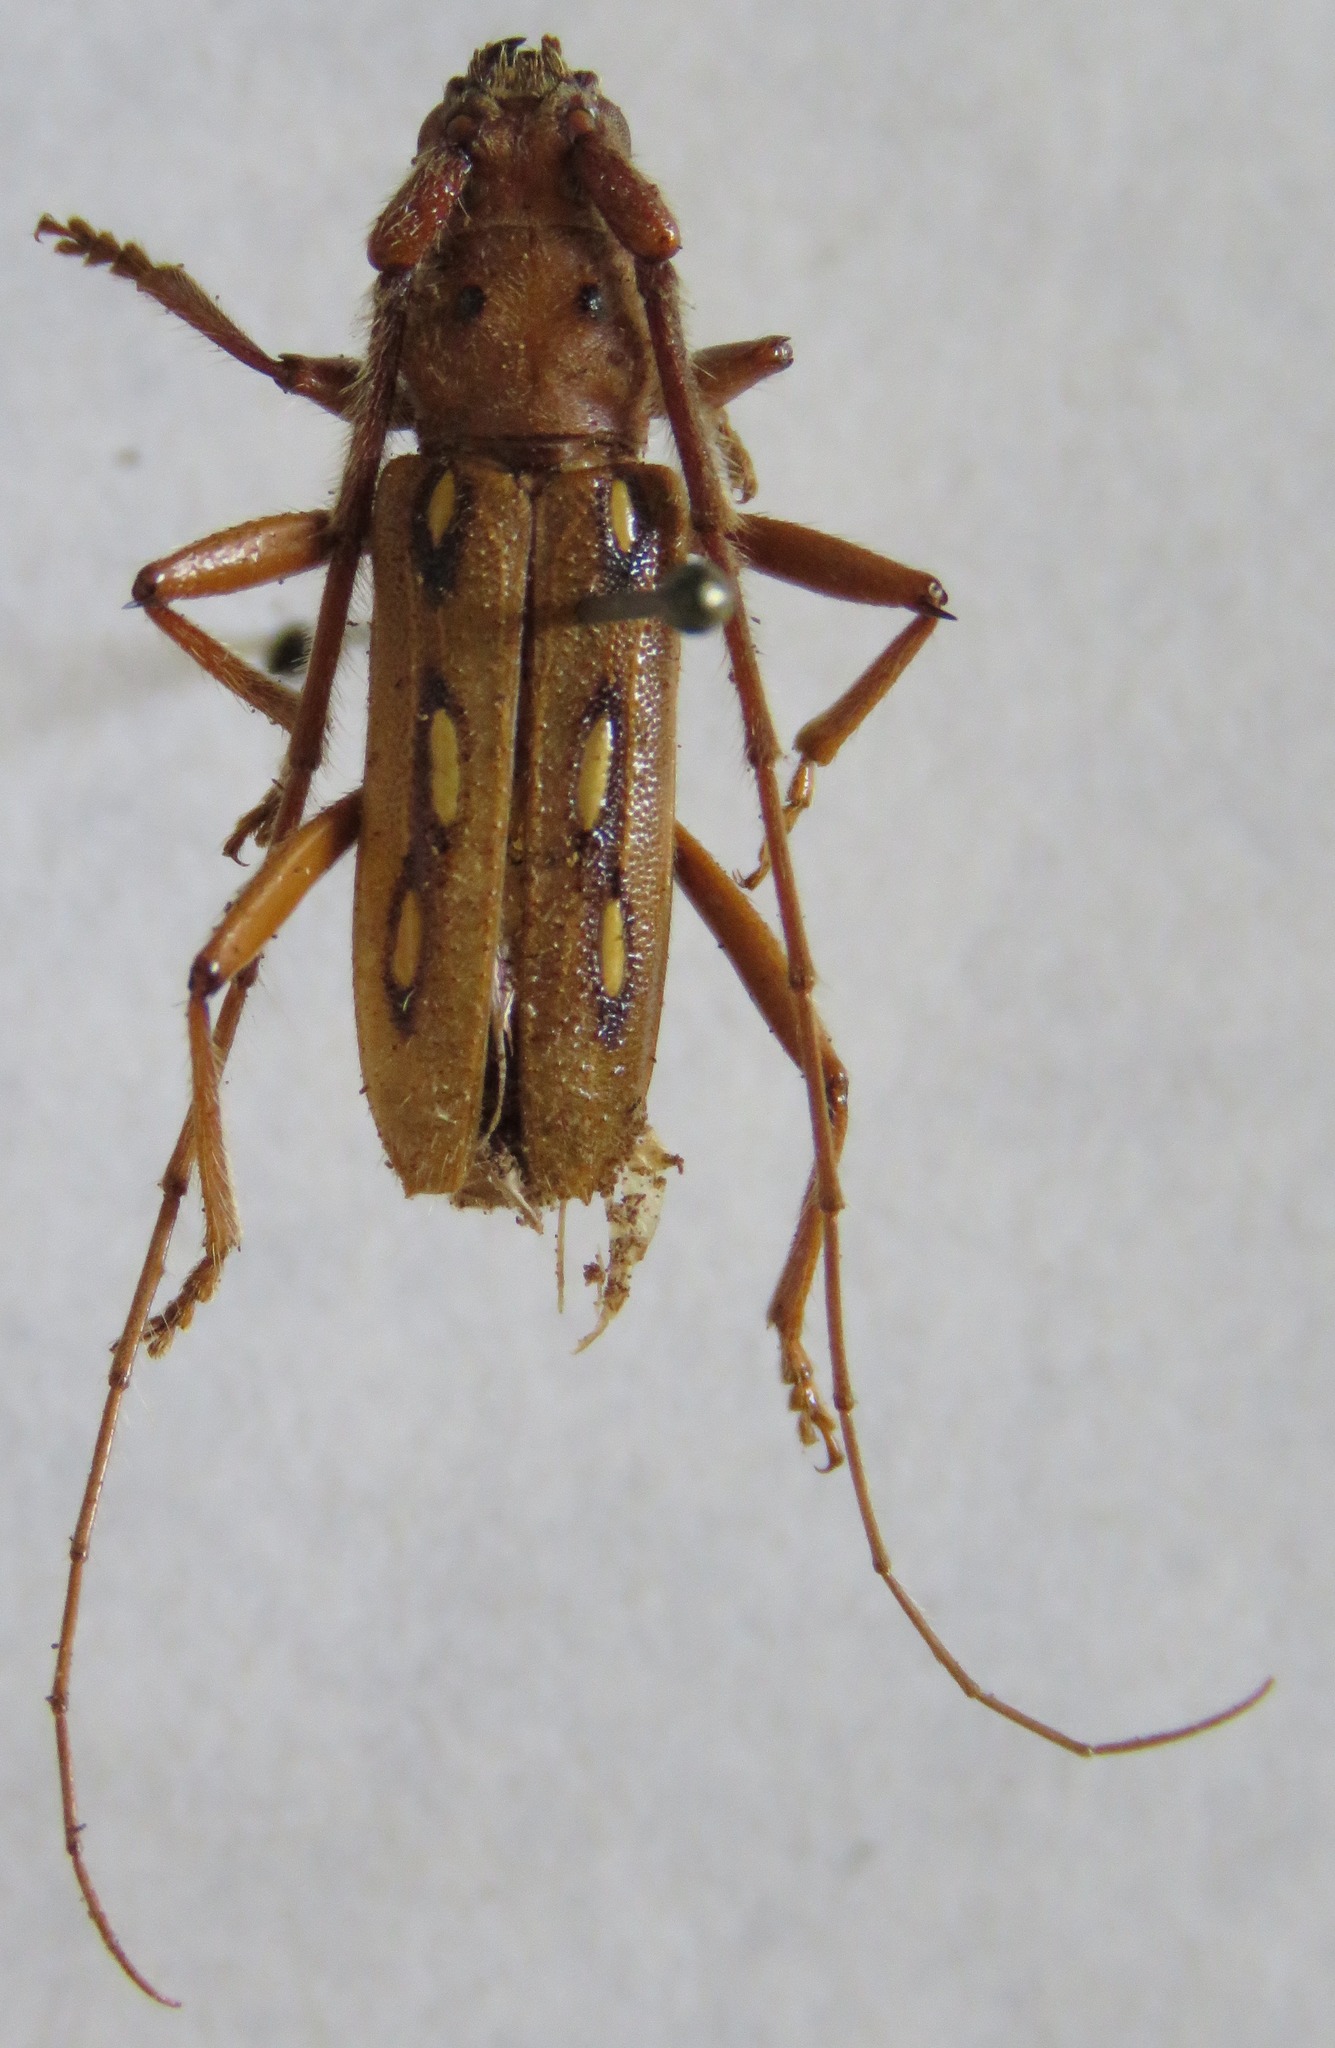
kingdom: Animalia
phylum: Arthropoda
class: Insecta
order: Coleoptera
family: Cerambycidae
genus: Eburia
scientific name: Eburia crinitus
